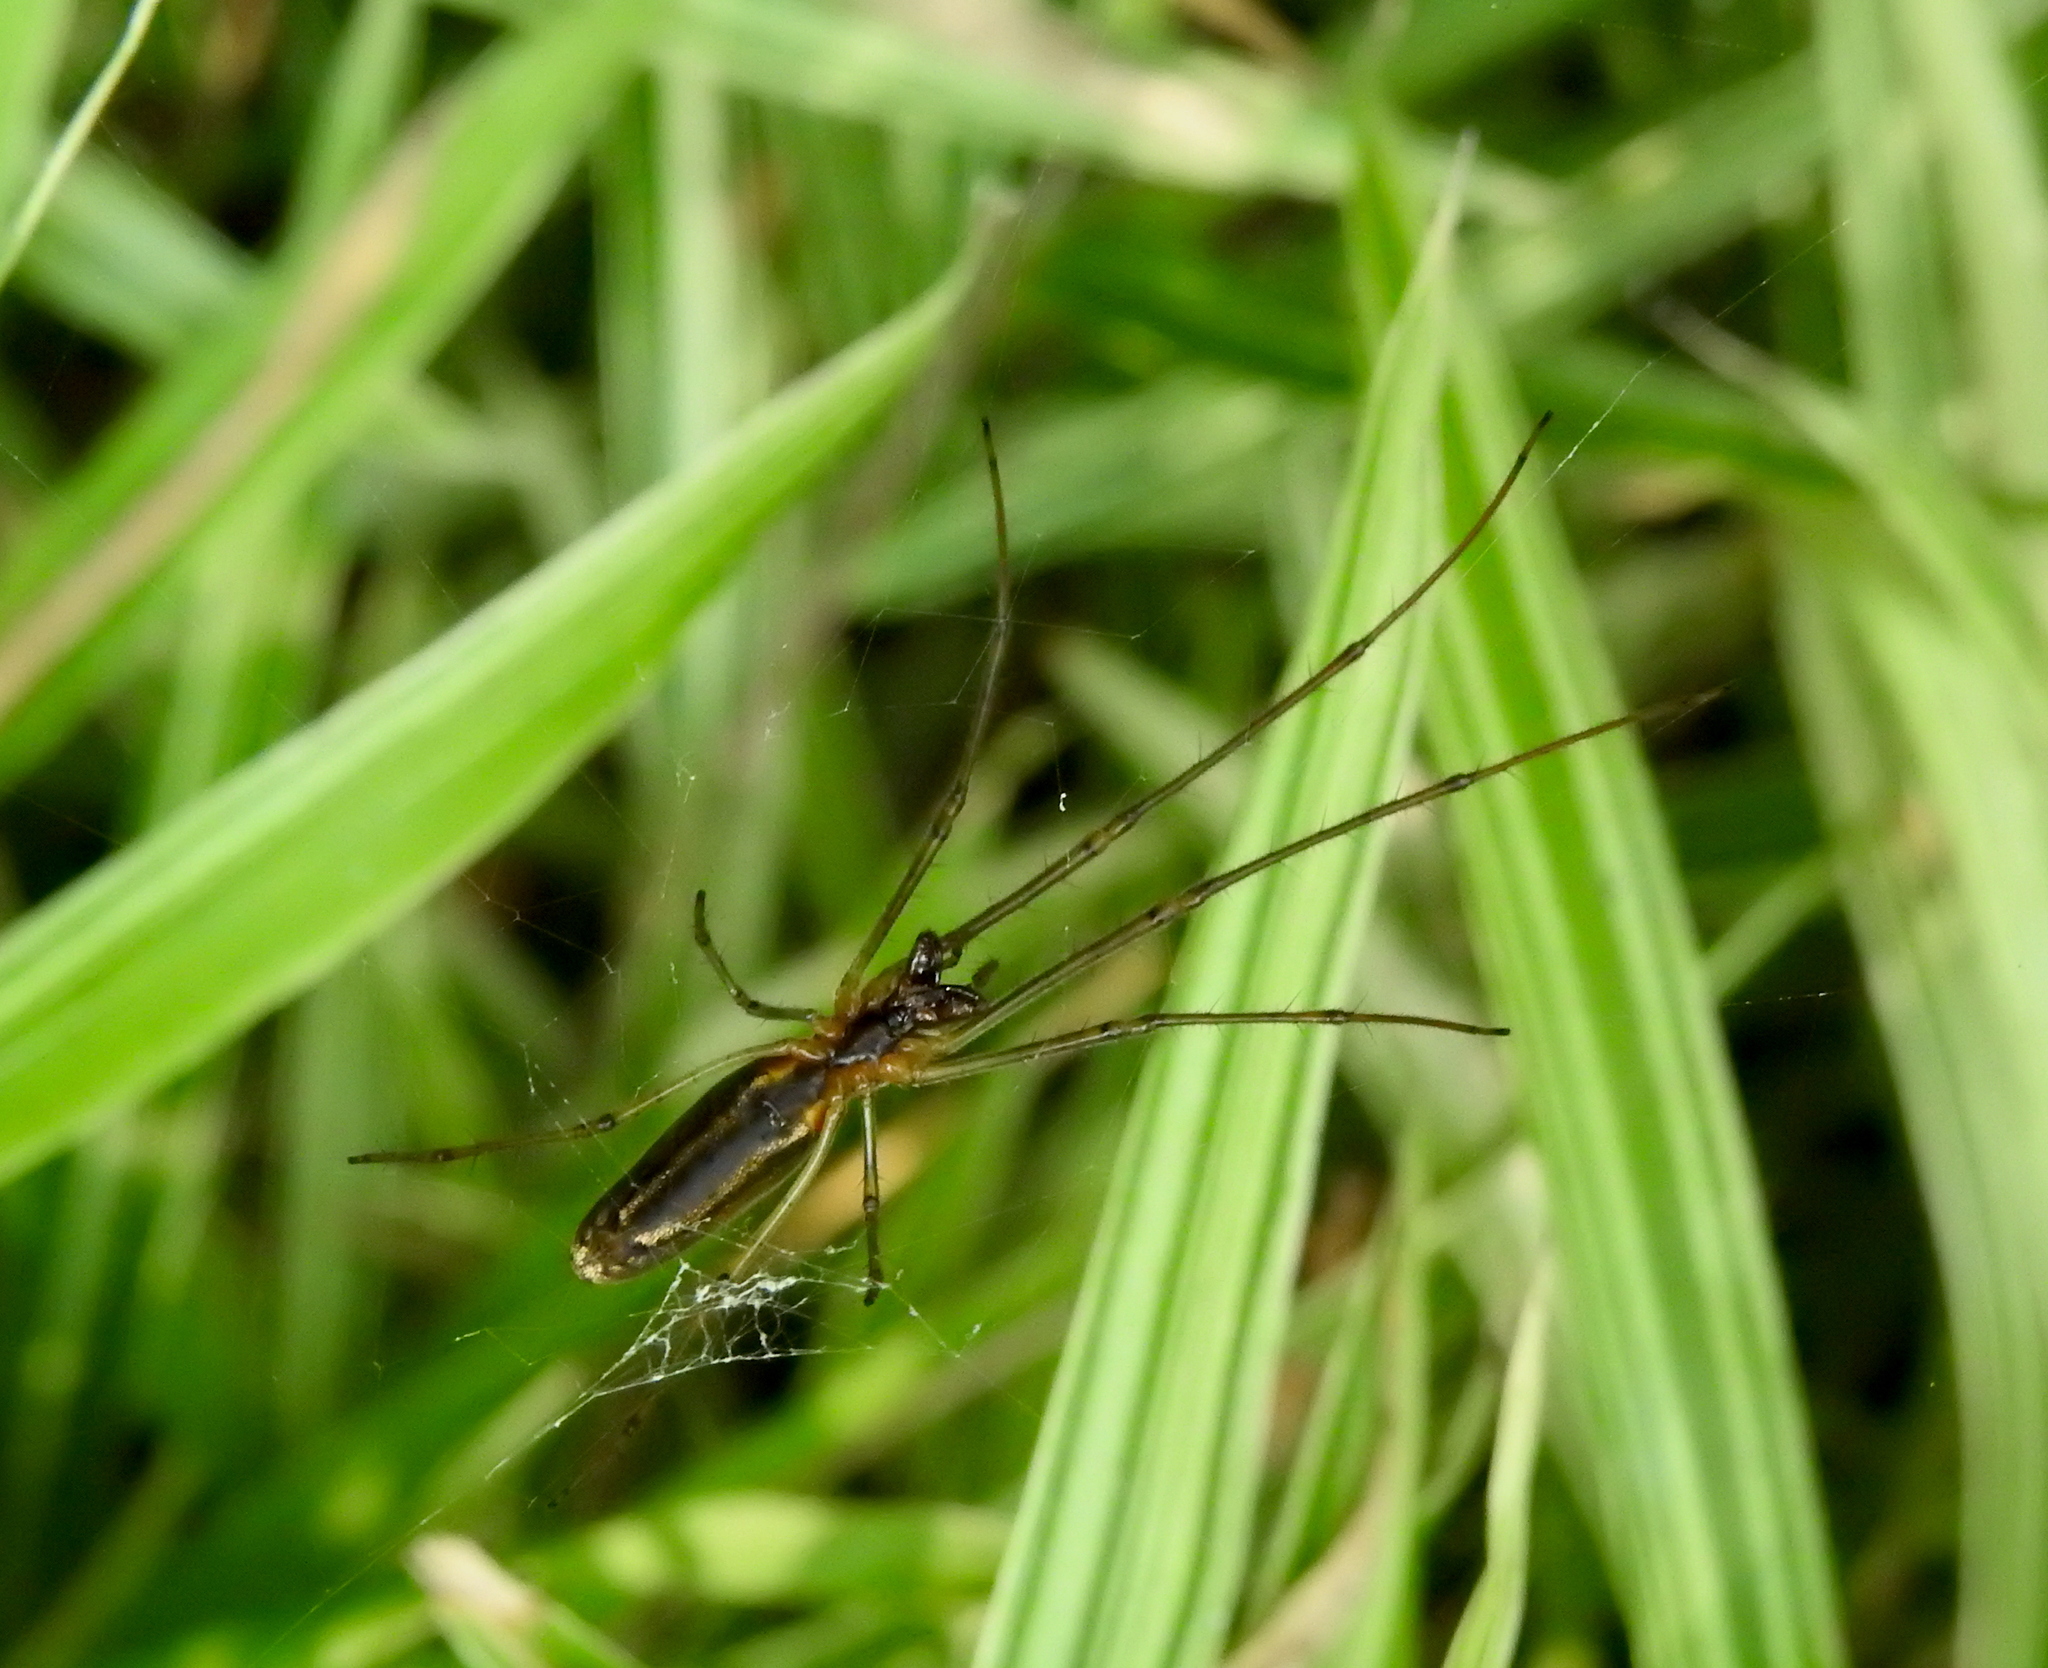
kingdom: Animalia
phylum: Arthropoda
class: Arachnida
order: Araneae
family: Tetragnathidae
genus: Tetragnatha
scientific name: Tetragnatha
